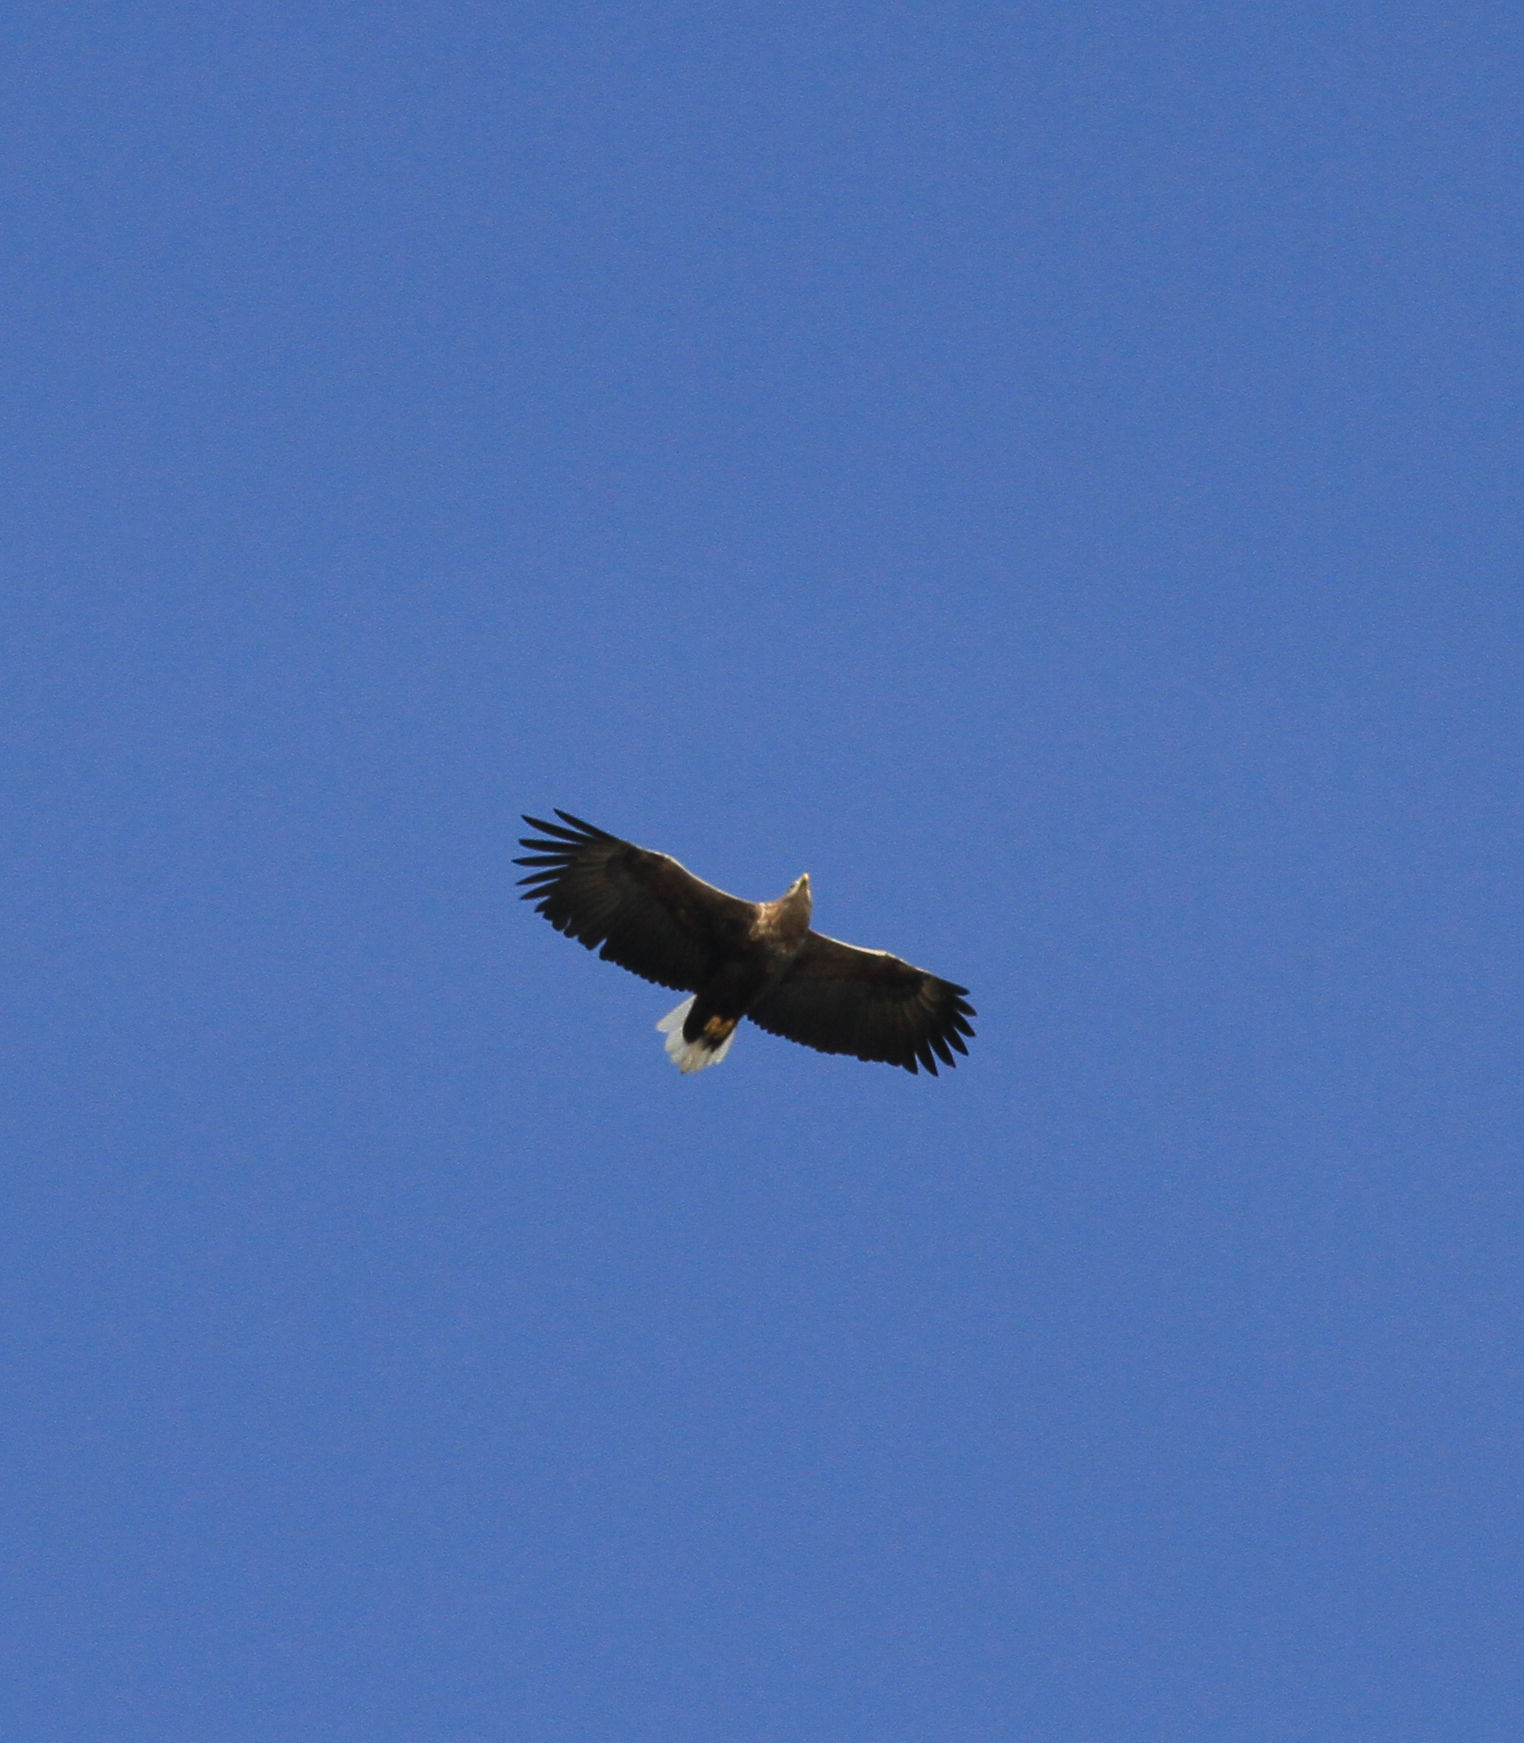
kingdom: Animalia
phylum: Chordata
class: Aves
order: Accipitriformes
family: Accipitridae
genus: Haliaeetus
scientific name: Haliaeetus albicilla
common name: White-tailed eagle
